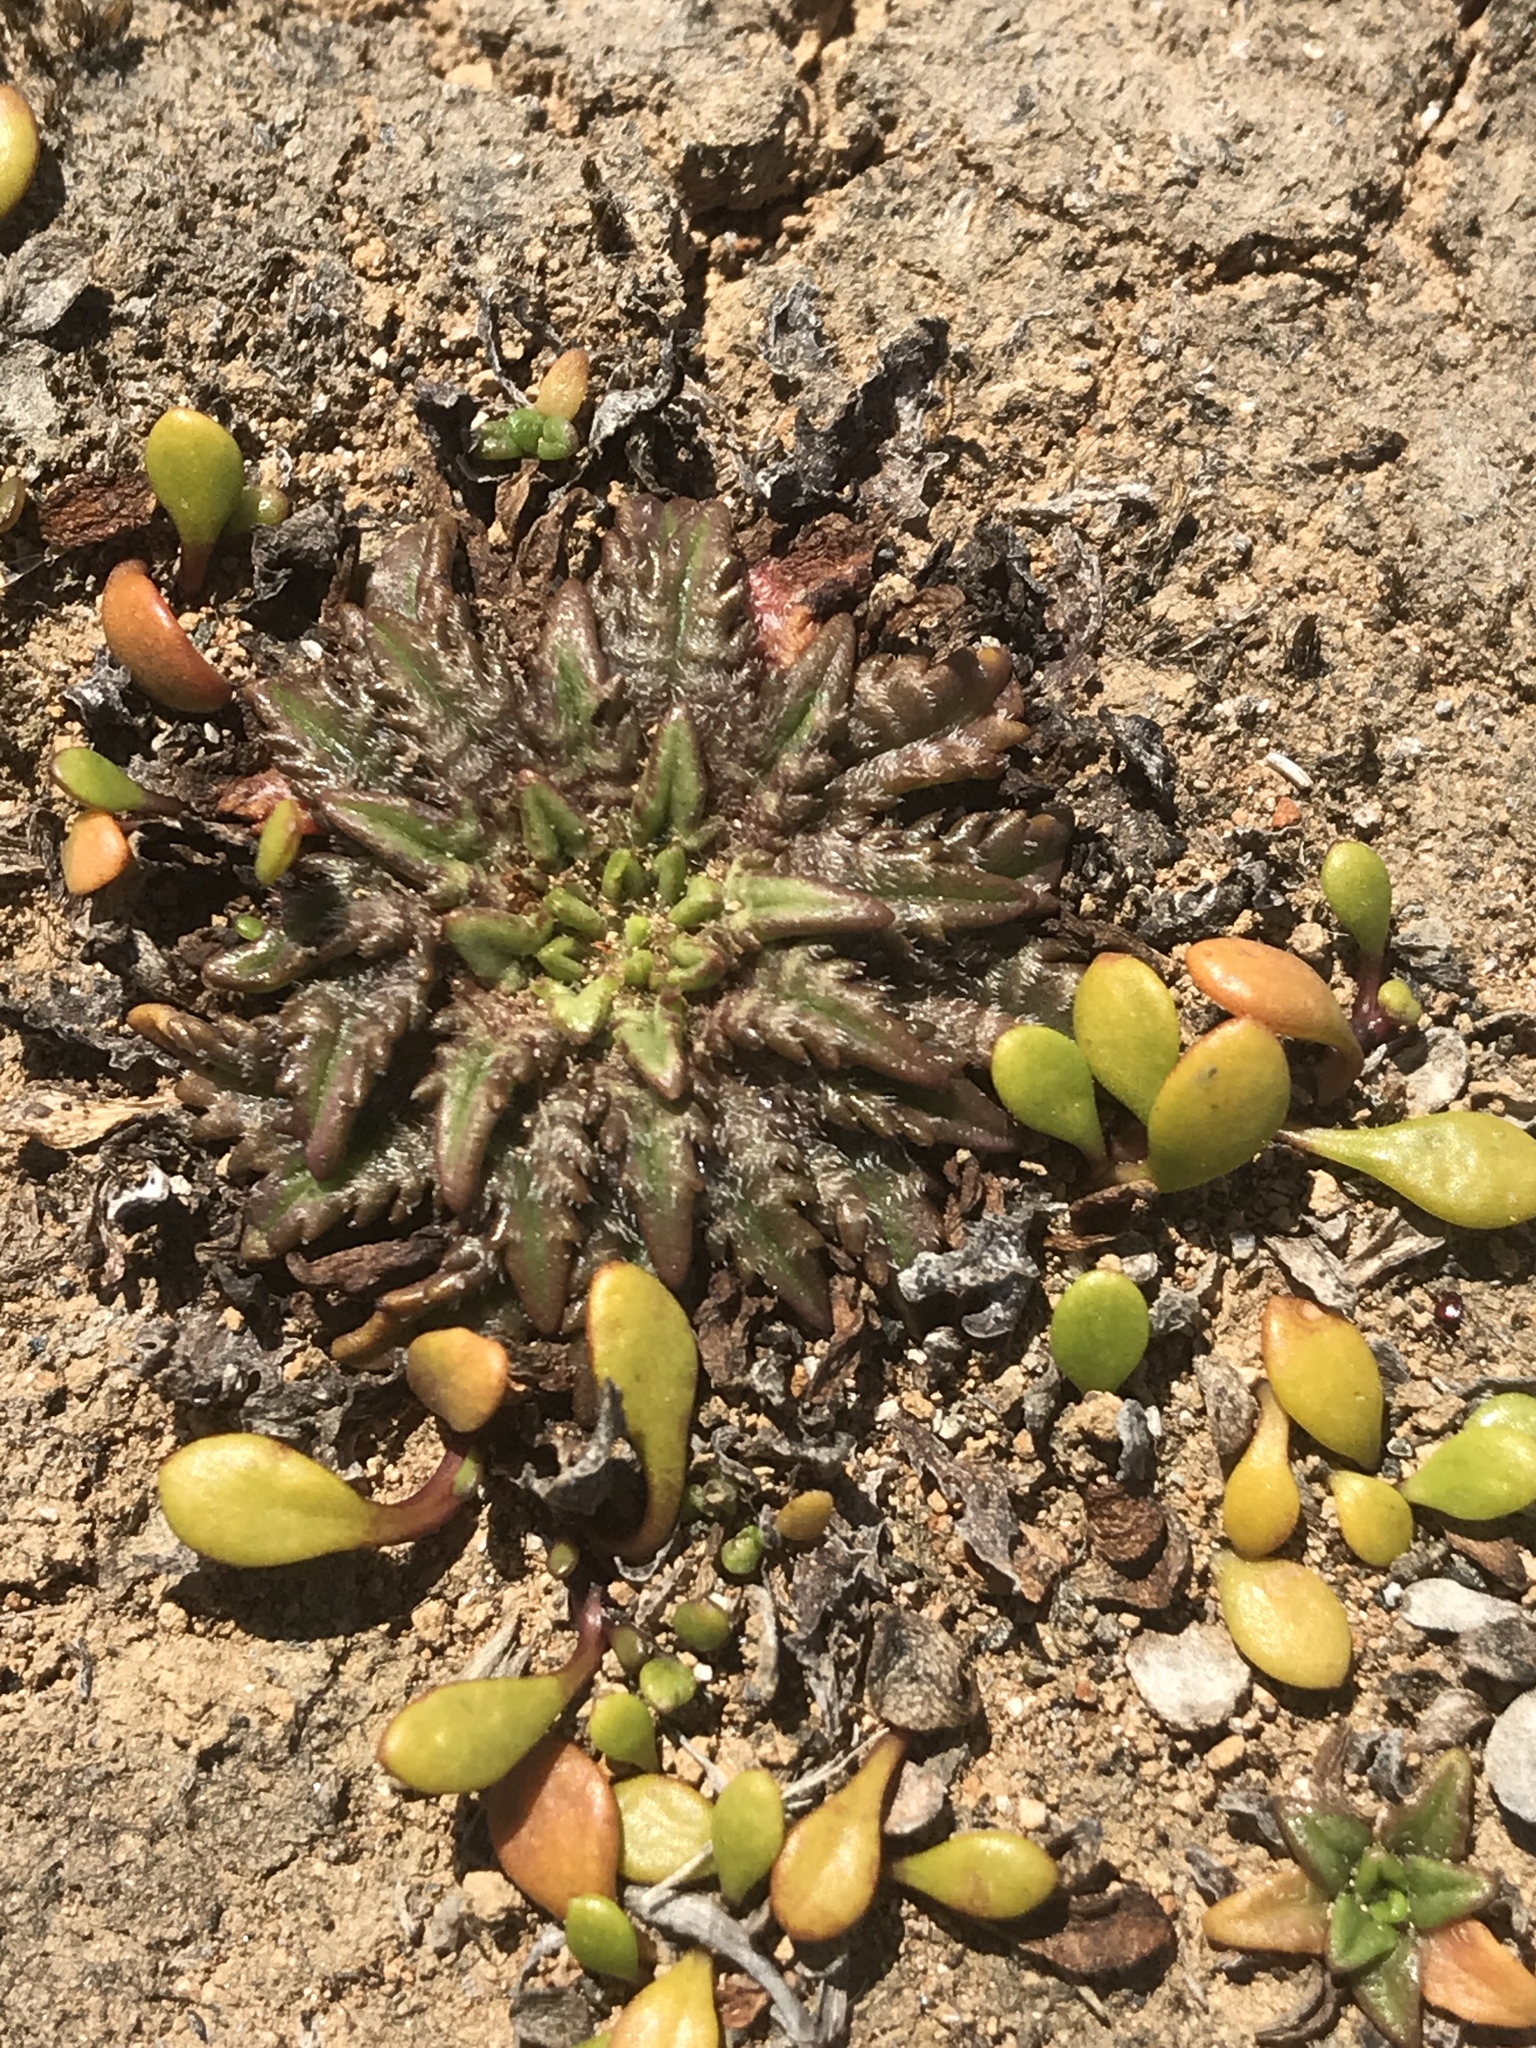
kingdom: Plantae
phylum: Tracheophyta
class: Magnoliopsida
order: Lamiales
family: Plantaginaceae
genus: Plantago
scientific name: Plantago triandra
